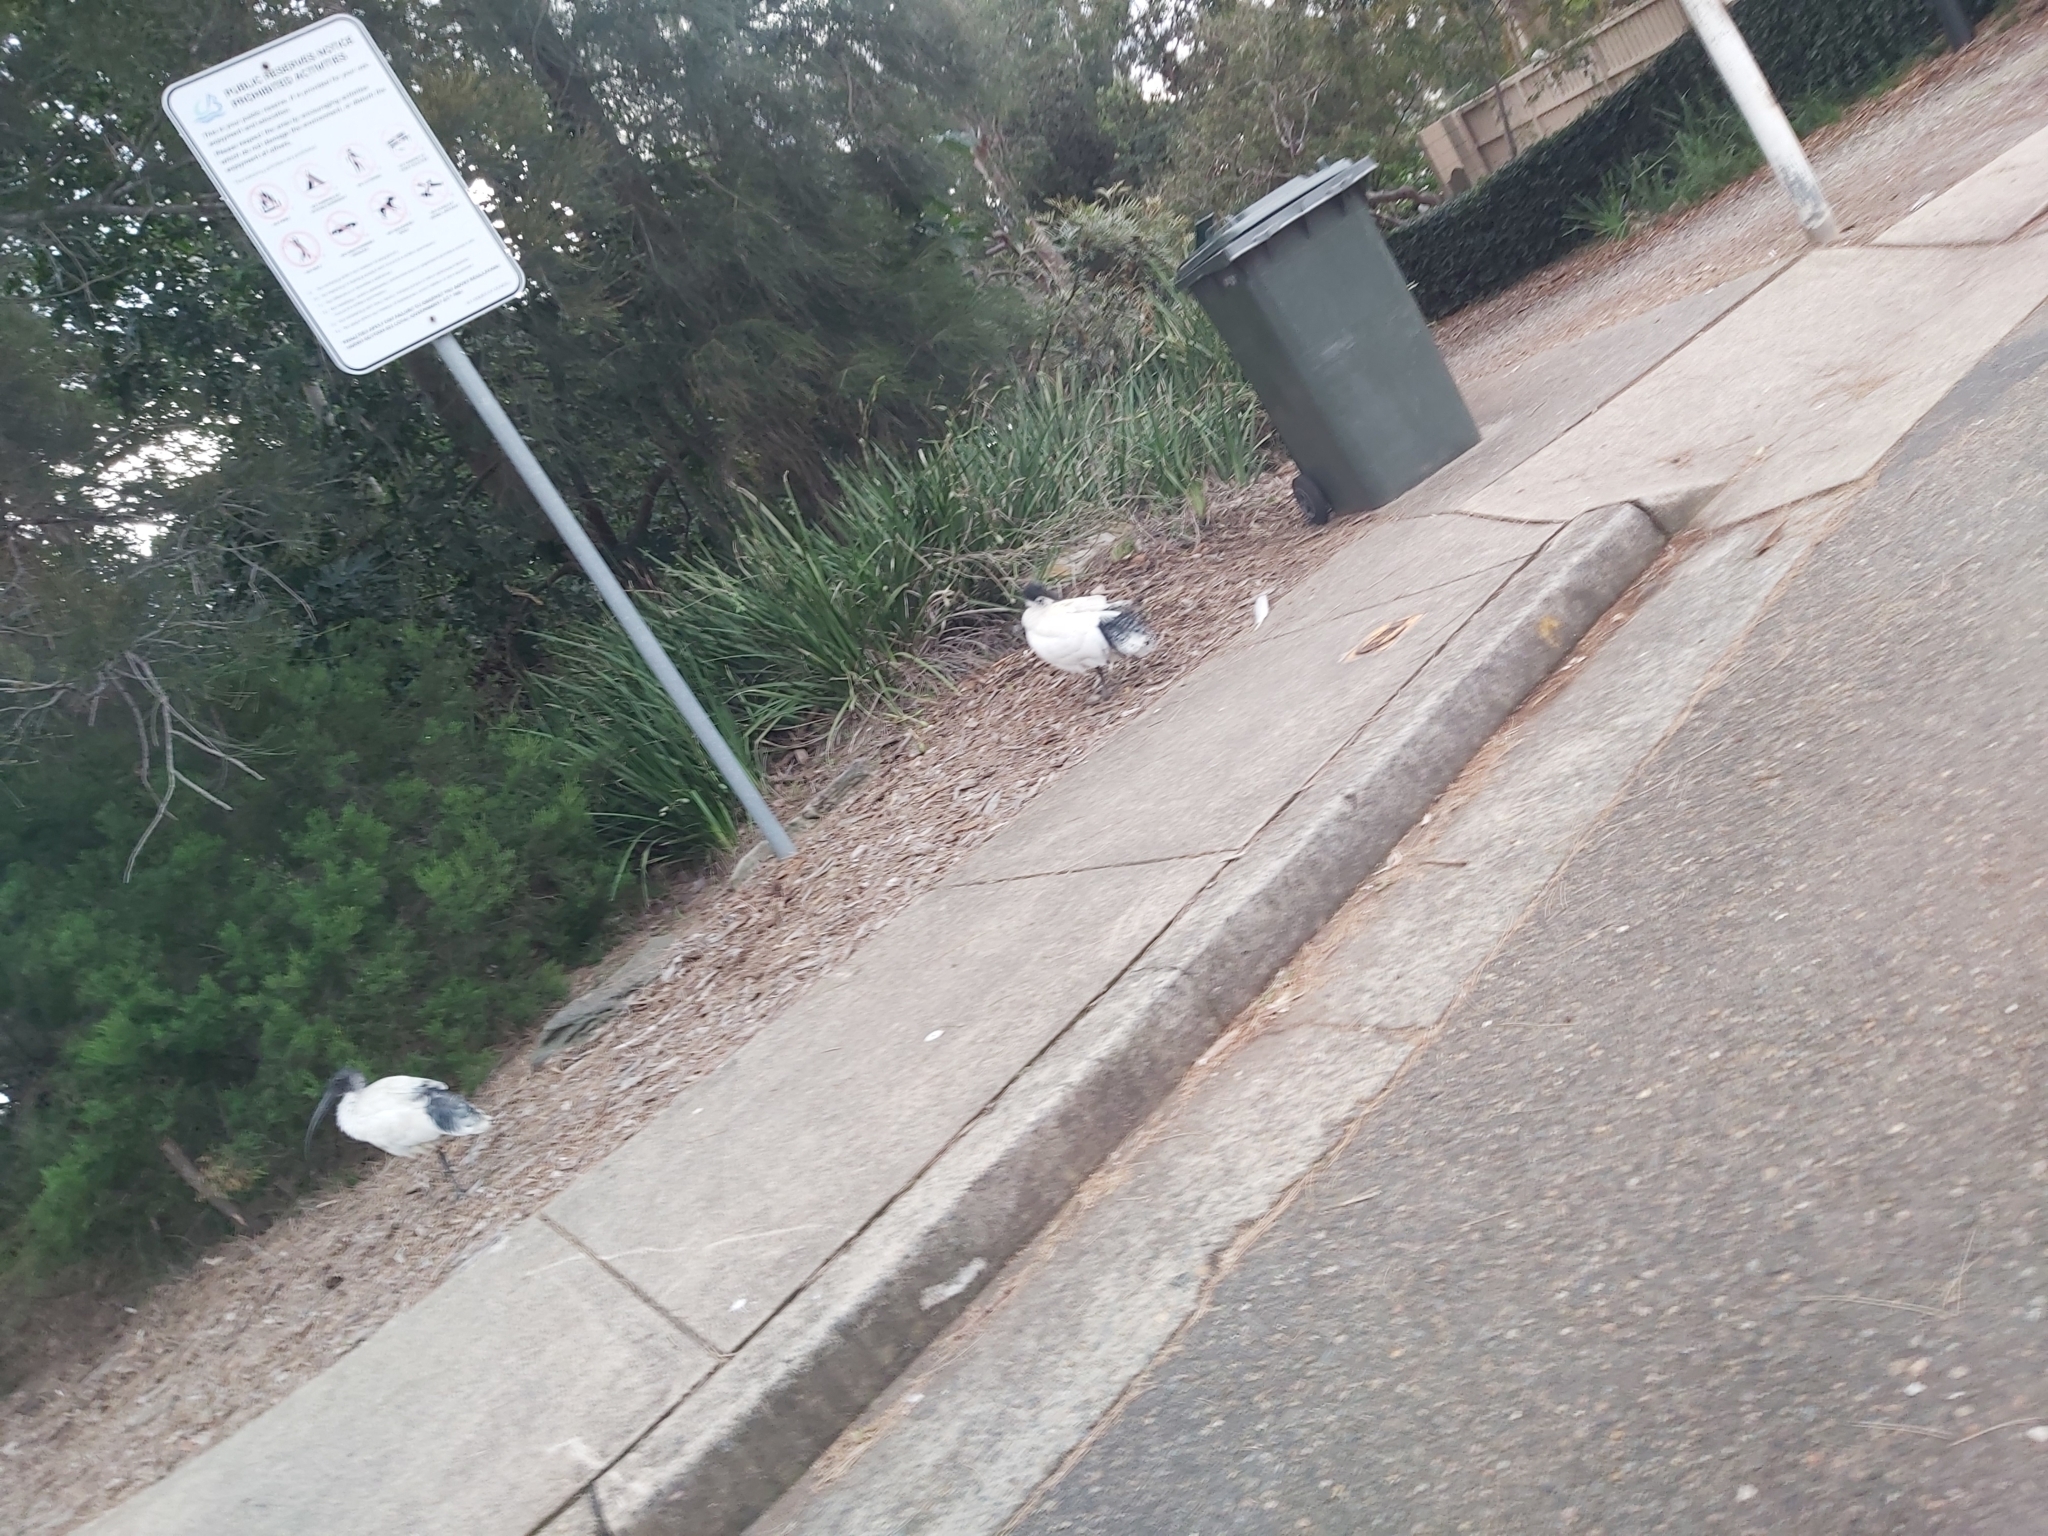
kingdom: Animalia
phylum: Chordata
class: Aves
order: Pelecaniformes
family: Threskiornithidae
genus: Threskiornis
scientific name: Threskiornis molucca
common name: Australian white ibis
